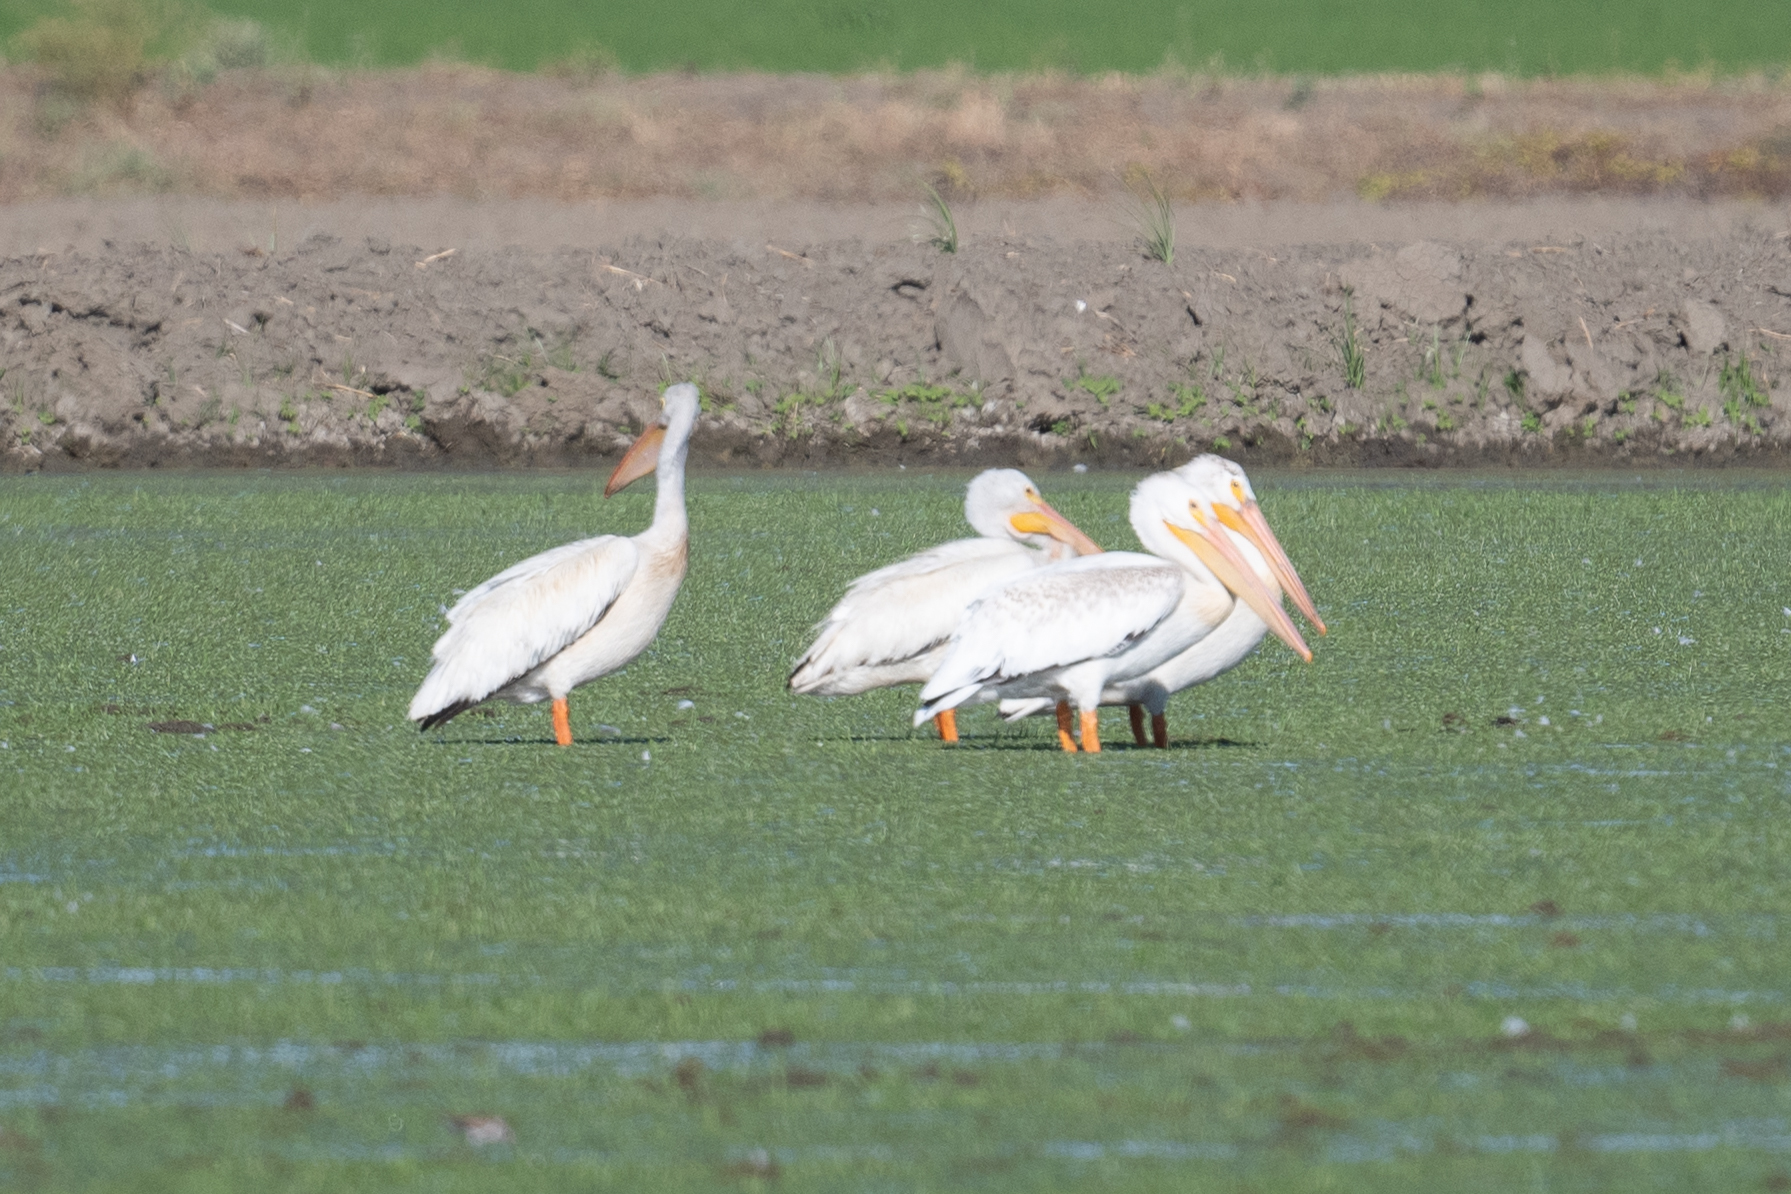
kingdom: Animalia
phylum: Chordata
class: Aves
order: Pelecaniformes
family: Pelecanidae
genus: Pelecanus
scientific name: Pelecanus erythrorhynchos
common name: American white pelican
